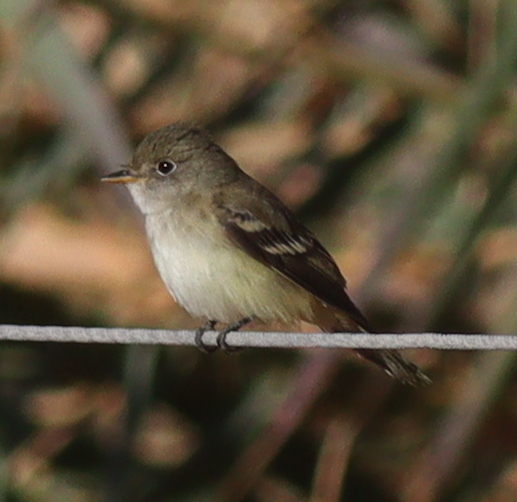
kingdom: Animalia
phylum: Chordata
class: Aves
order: Passeriformes
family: Tyrannidae
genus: Elaenia
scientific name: Elaenia albiceps
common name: White-crested elaenia
